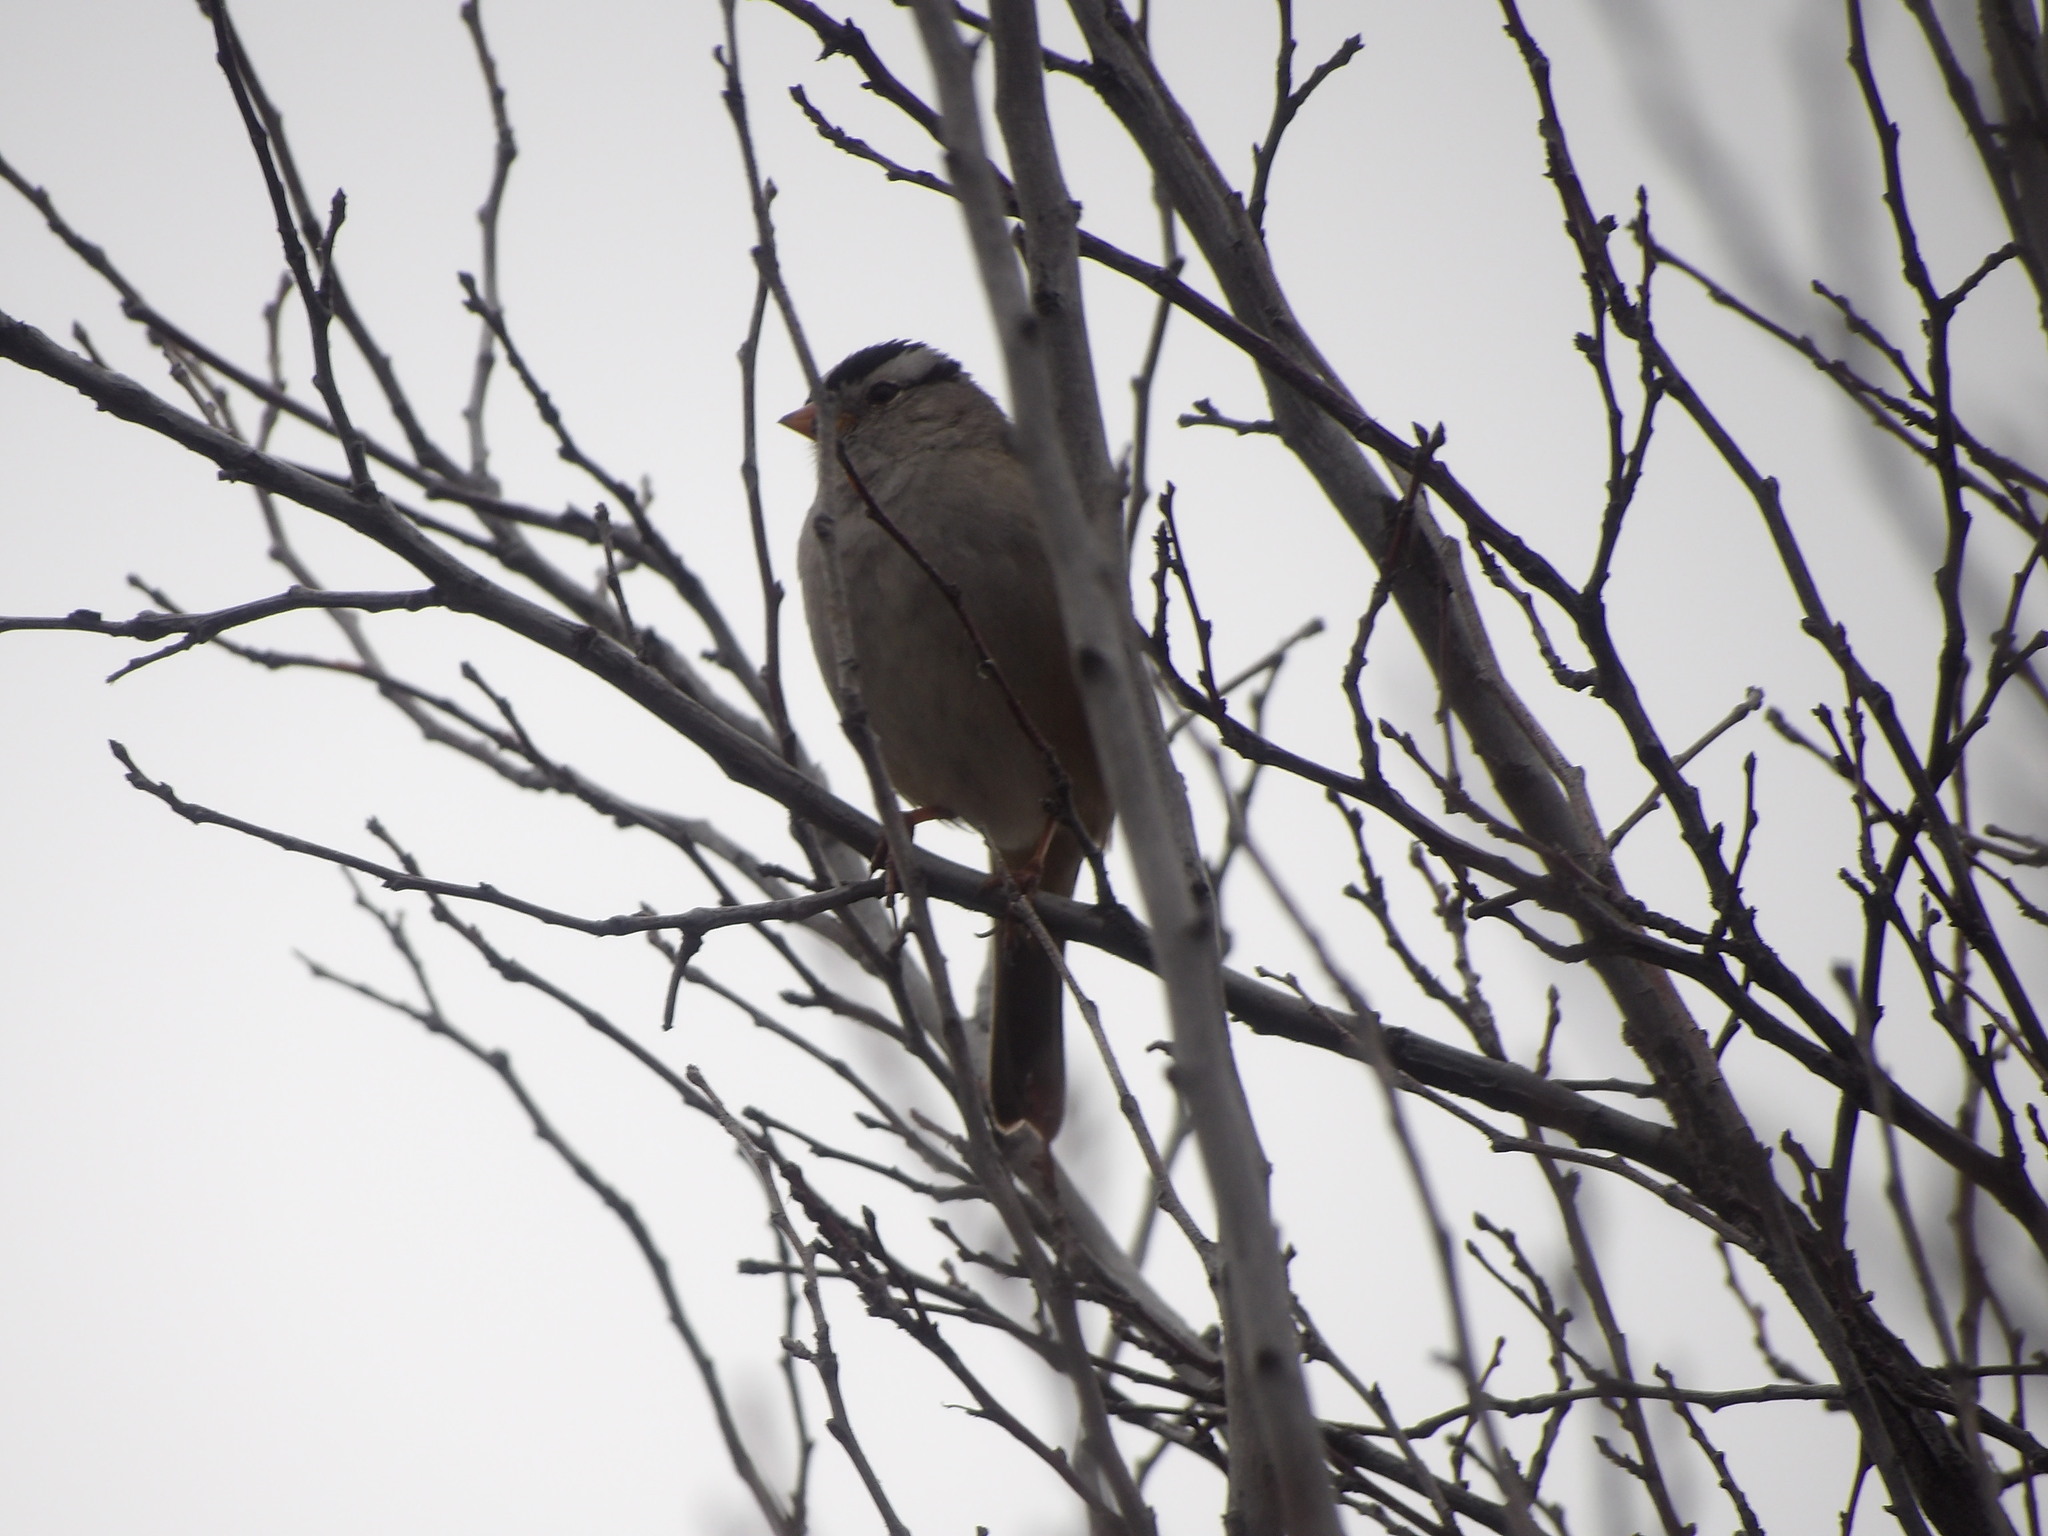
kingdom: Animalia
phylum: Chordata
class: Aves
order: Passeriformes
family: Passerellidae
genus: Zonotrichia
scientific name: Zonotrichia leucophrys
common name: White-crowned sparrow
